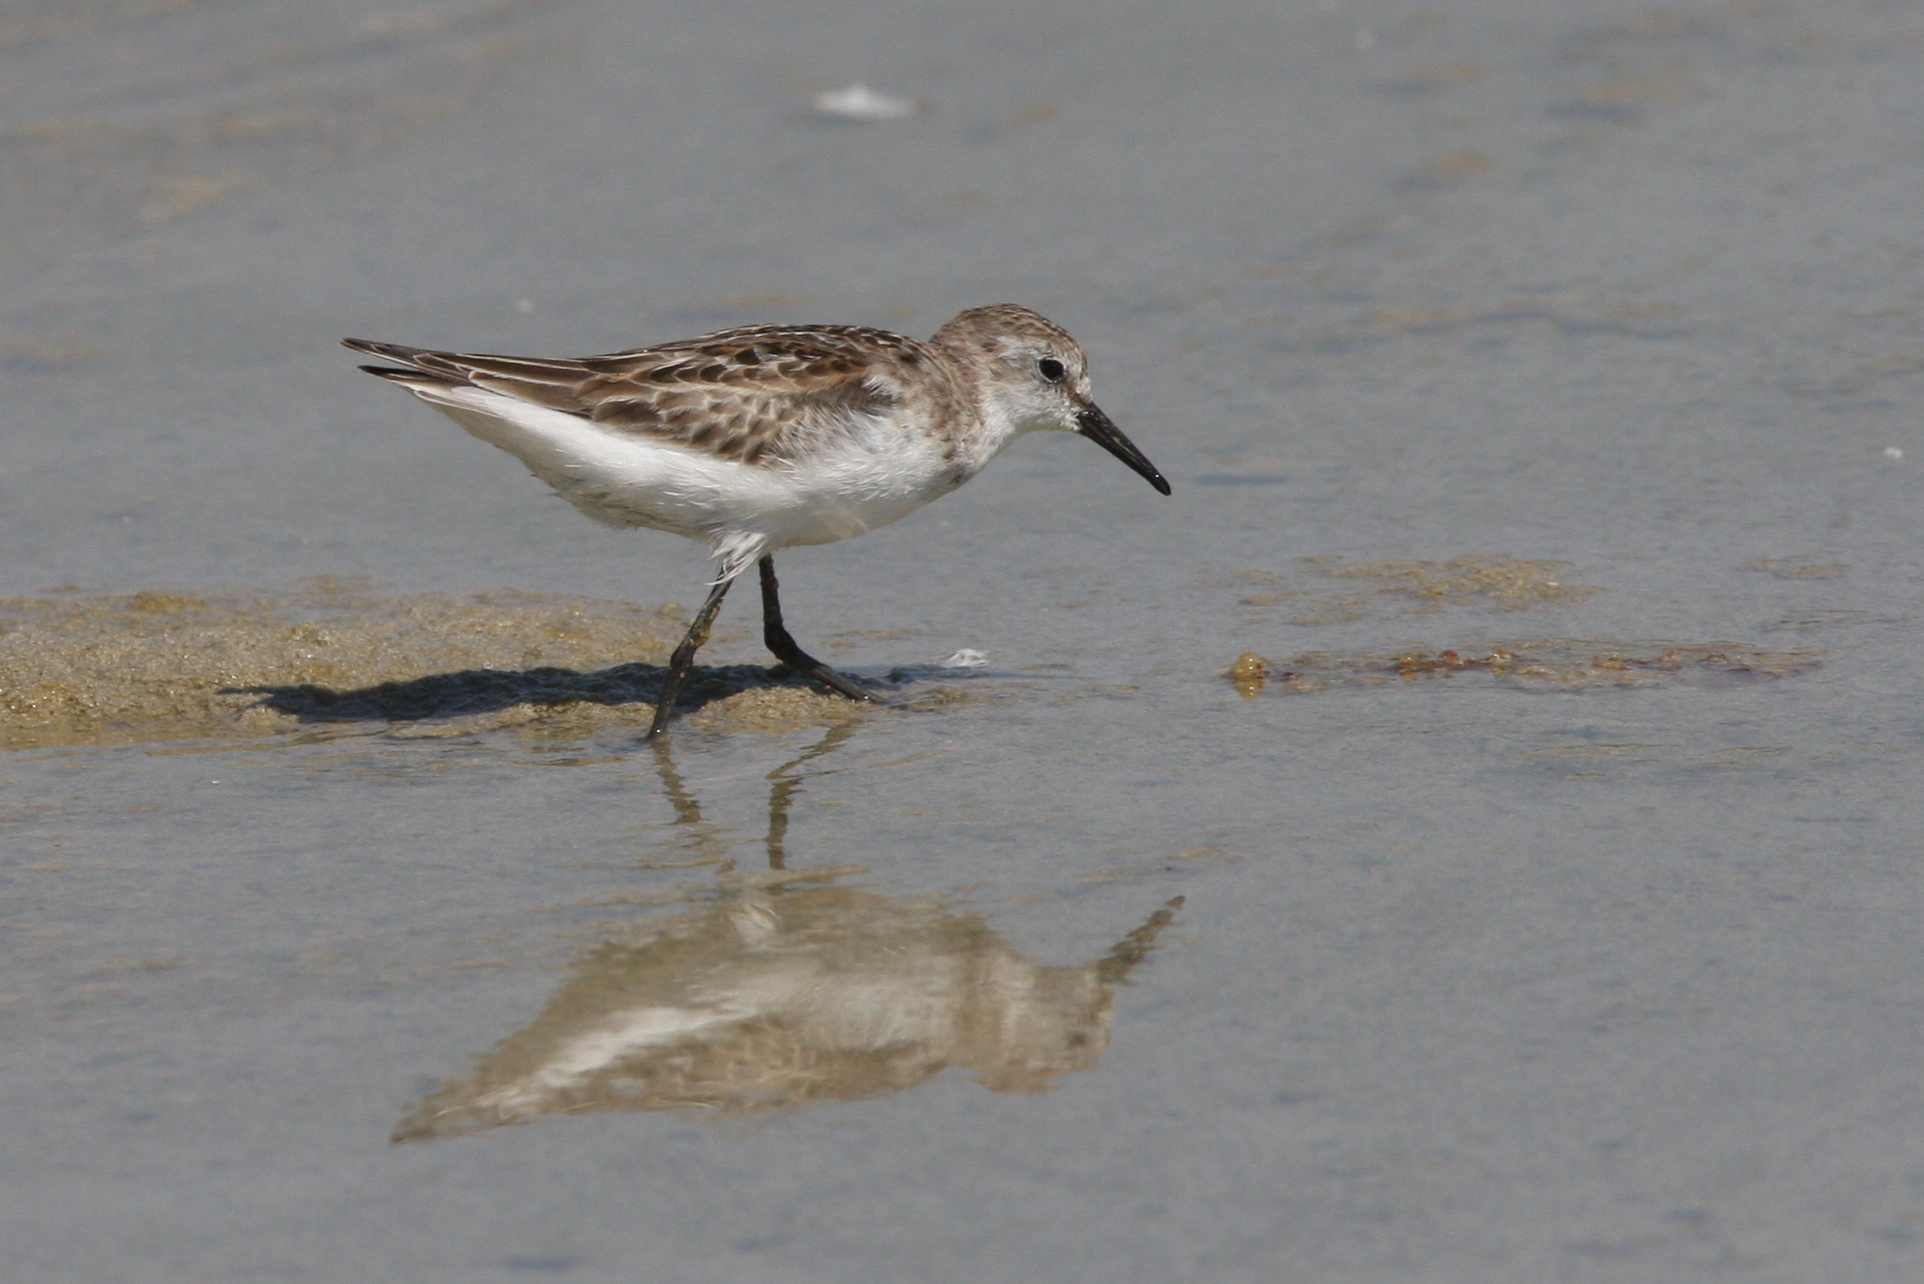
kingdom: Animalia
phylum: Chordata
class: Aves
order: Charadriiformes
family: Scolopacidae
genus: Calidris
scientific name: Calidris minuta
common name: Little stint
